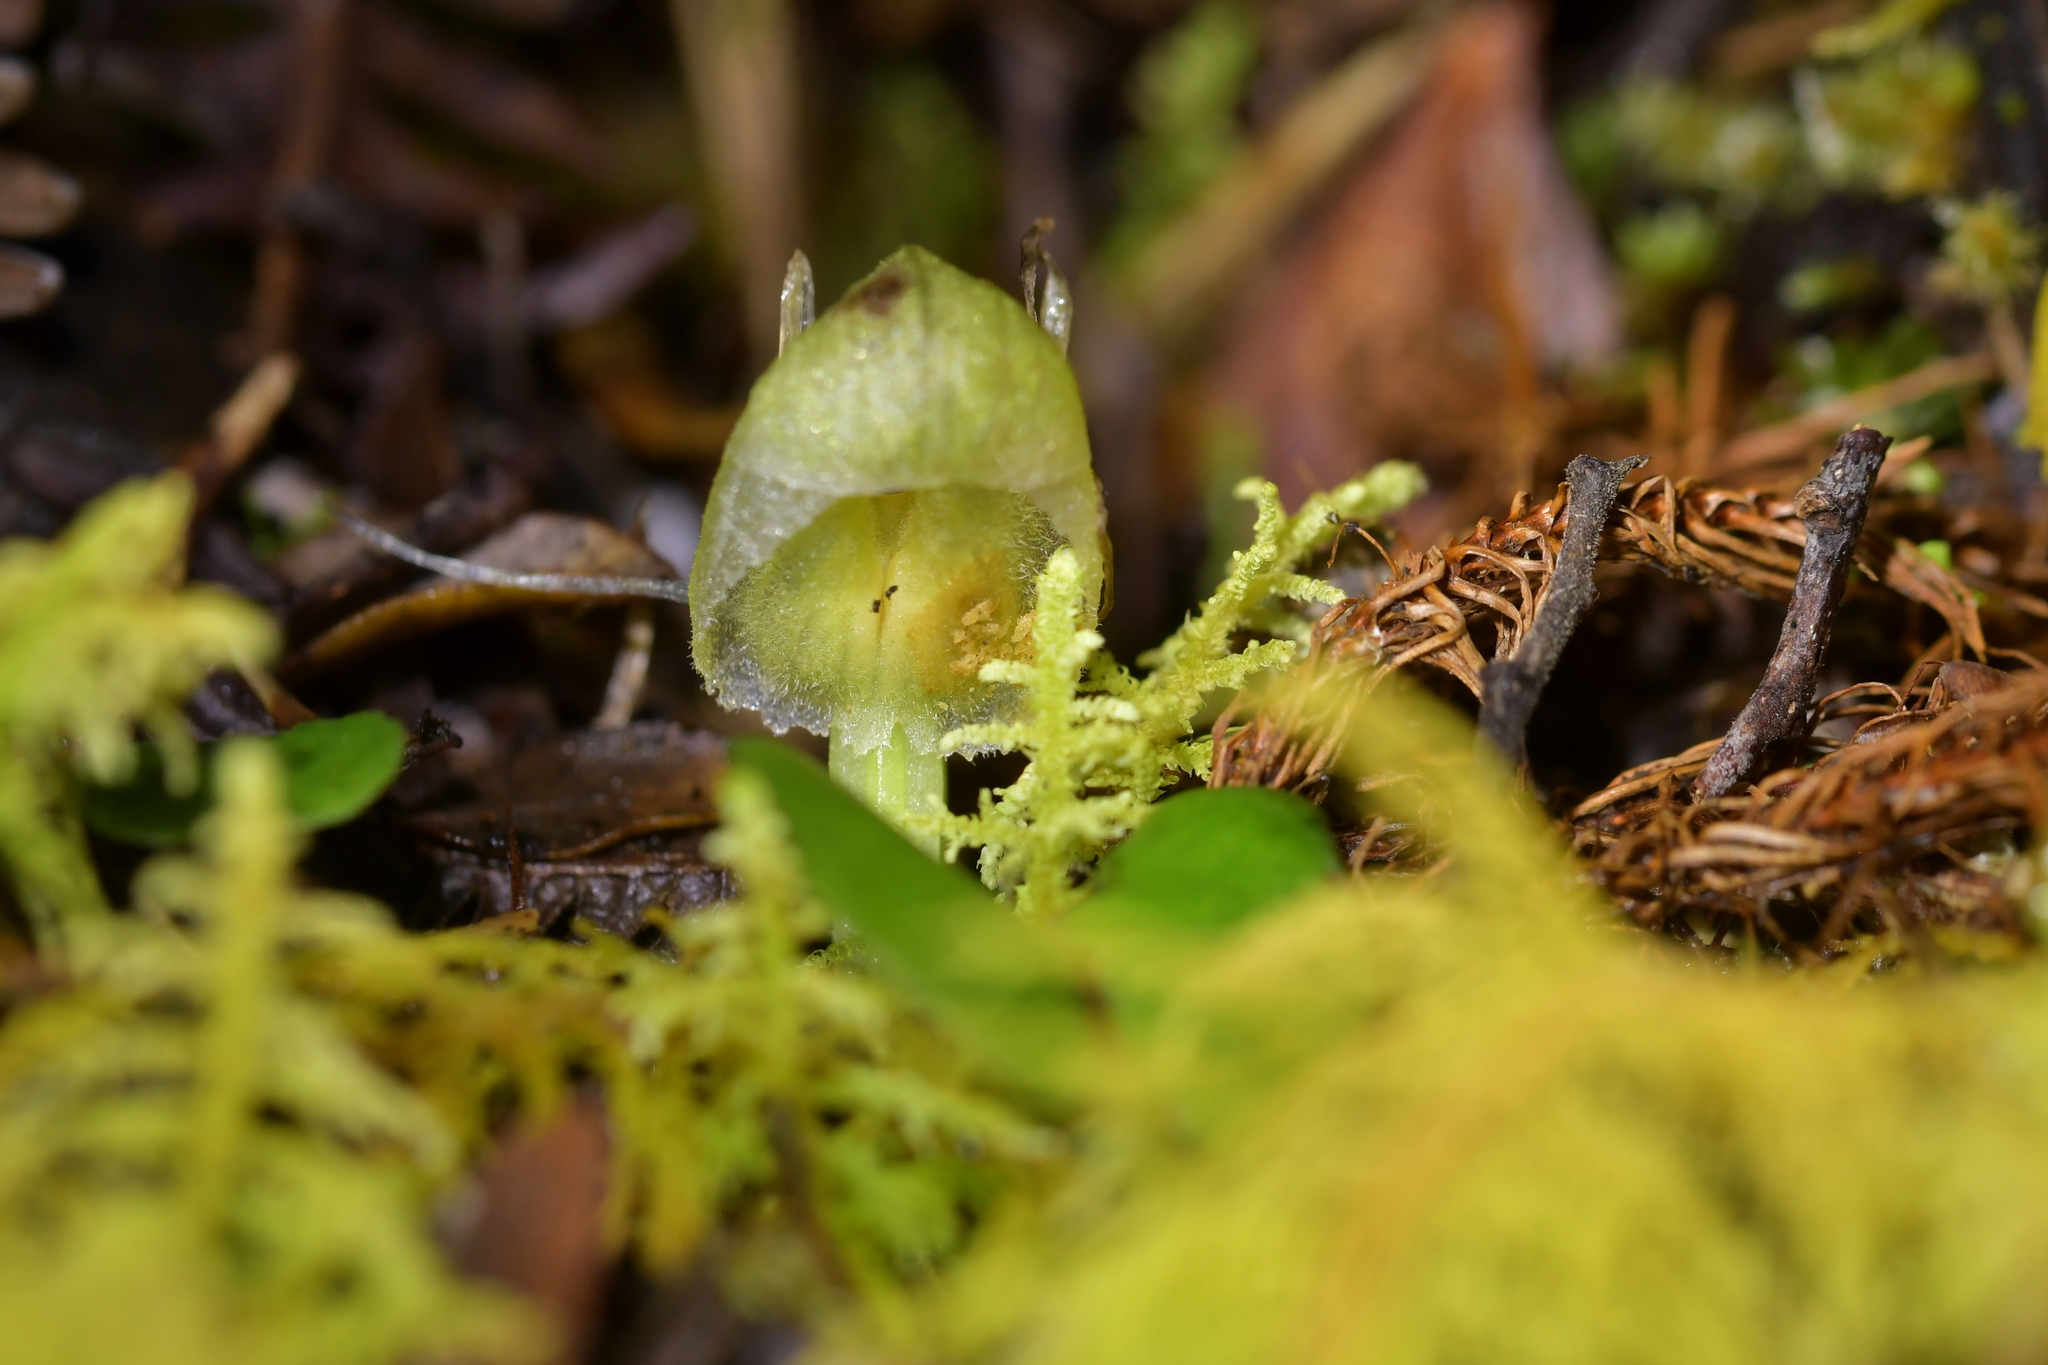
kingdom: Plantae
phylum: Tracheophyta
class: Liliopsida
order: Asparagales
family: Orchidaceae
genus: Corybas
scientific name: Corybas walliae
